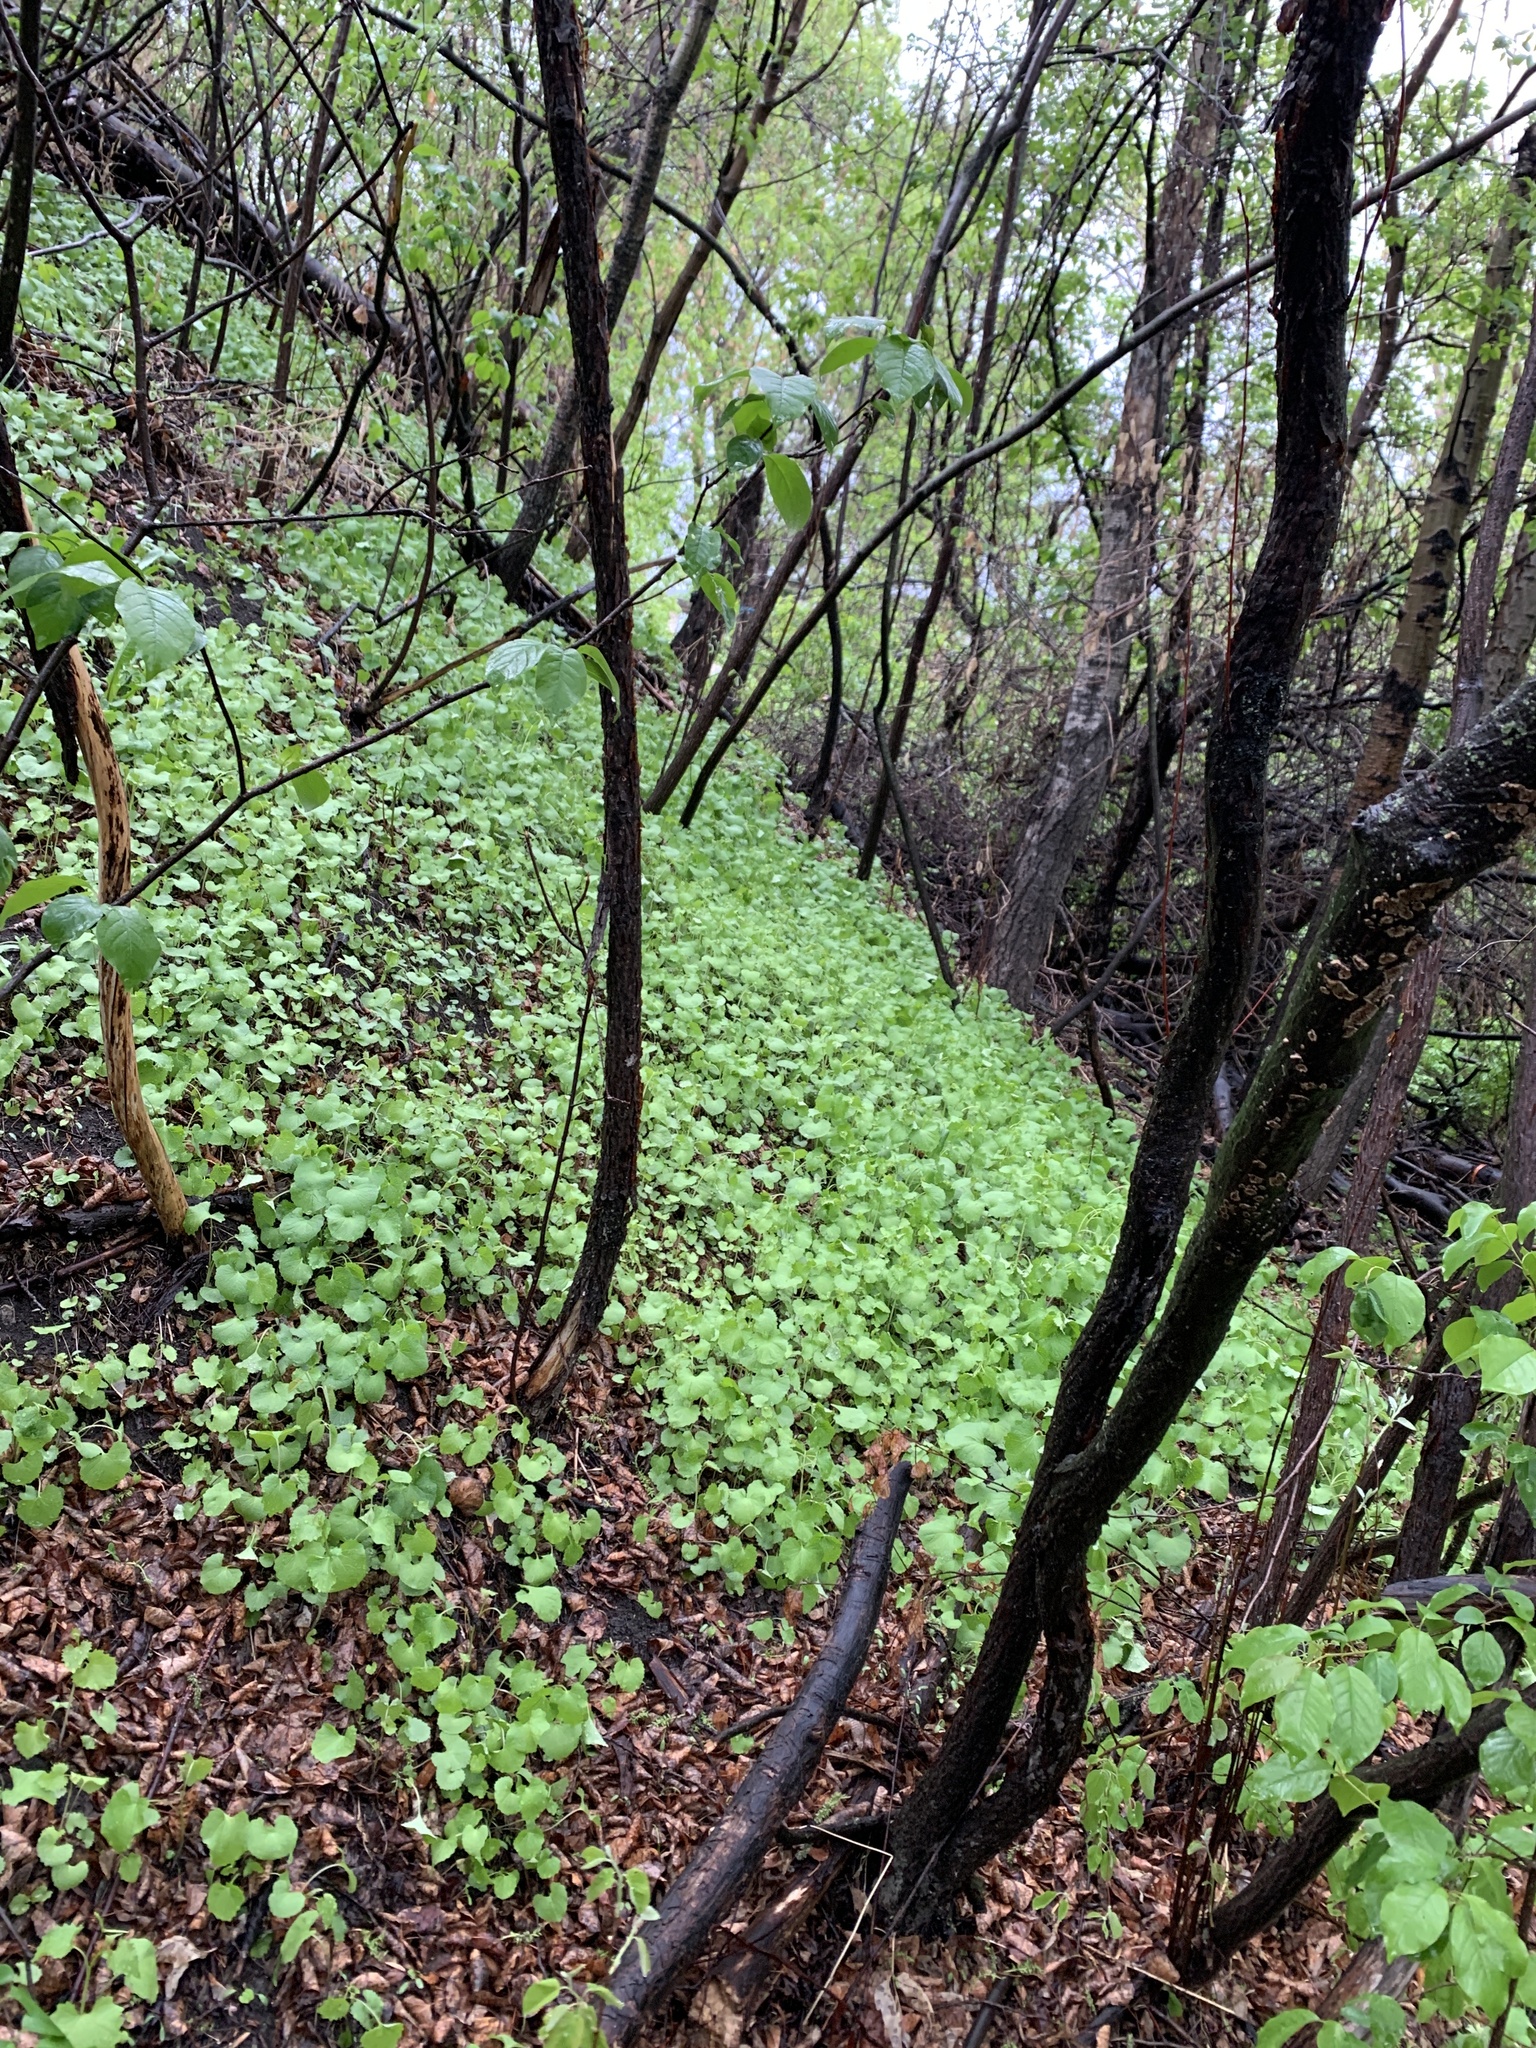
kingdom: Plantae
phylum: Tracheophyta
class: Magnoliopsida
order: Brassicales
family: Brassicaceae
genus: Alliaria
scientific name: Alliaria petiolata
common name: Garlic mustard
